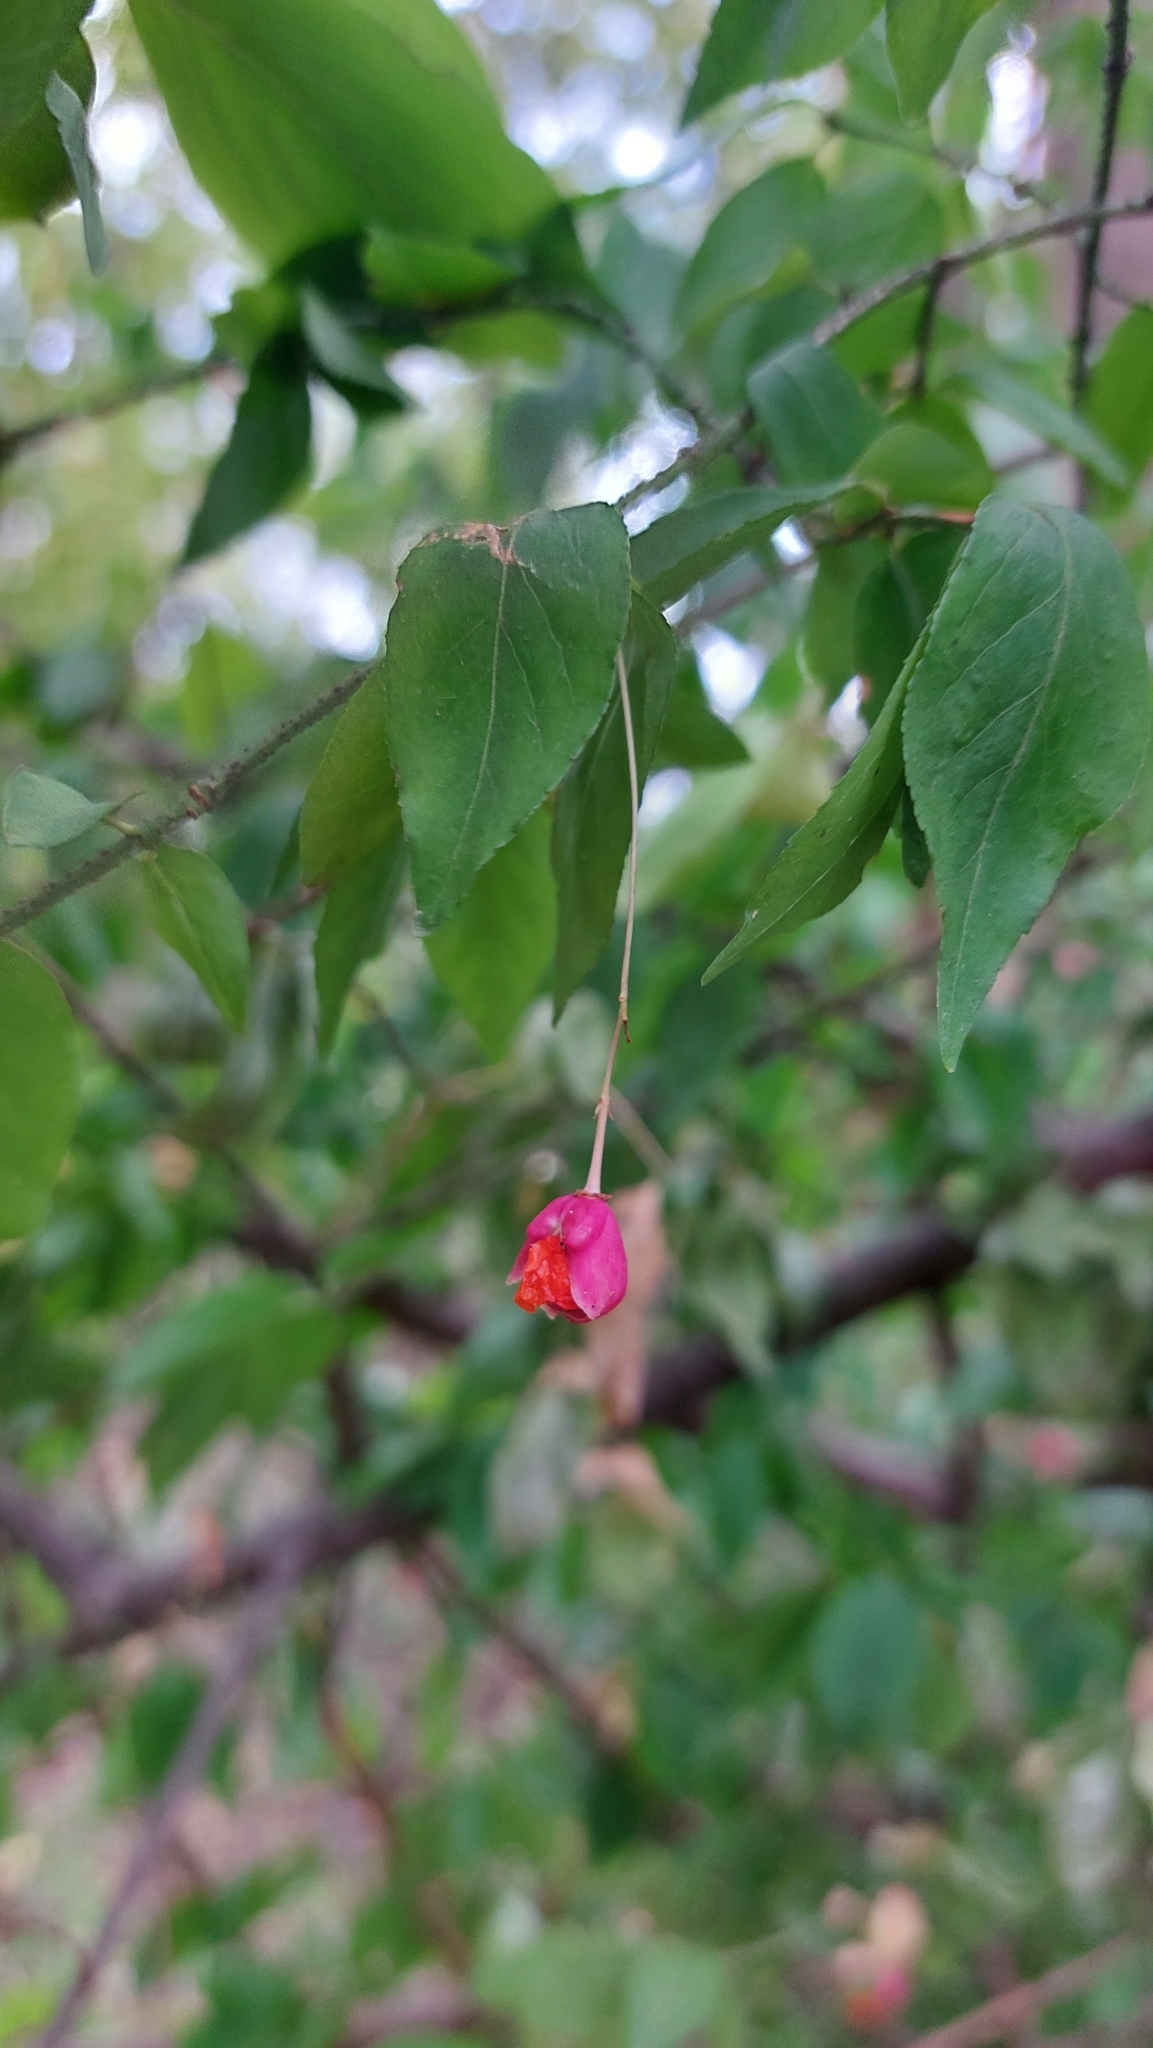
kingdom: Plantae
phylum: Tracheophyta
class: Magnoliopsida
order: Celastrales
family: Celastraceae
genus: Euonymus
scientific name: Euonymus verrucosus
